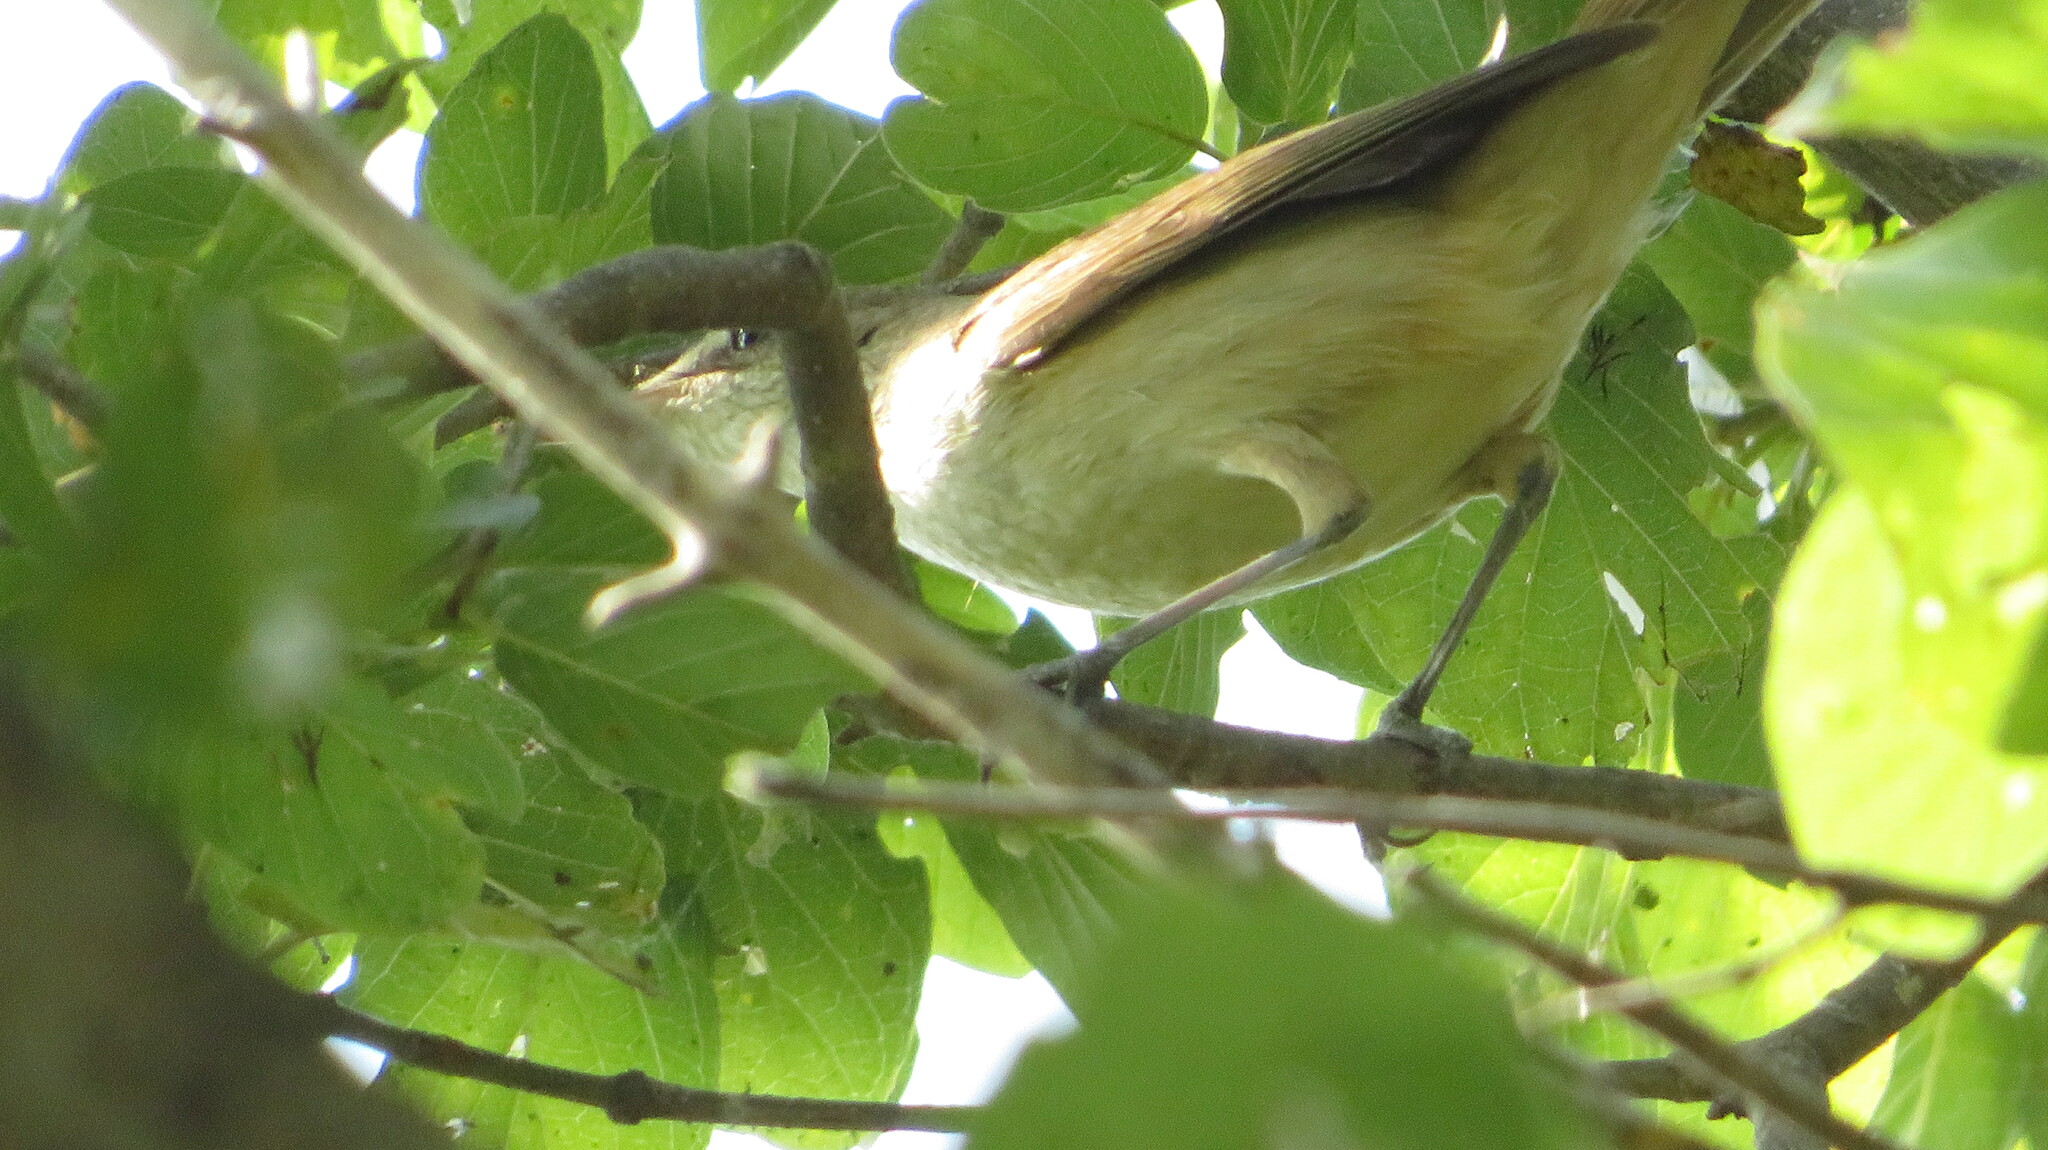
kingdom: Animalia
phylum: Chordata
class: Aves
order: Passeriformes
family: Acrocephalidae
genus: Acrocephalus
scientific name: Acrocephalus orientalis
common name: Oriental reed warbler
